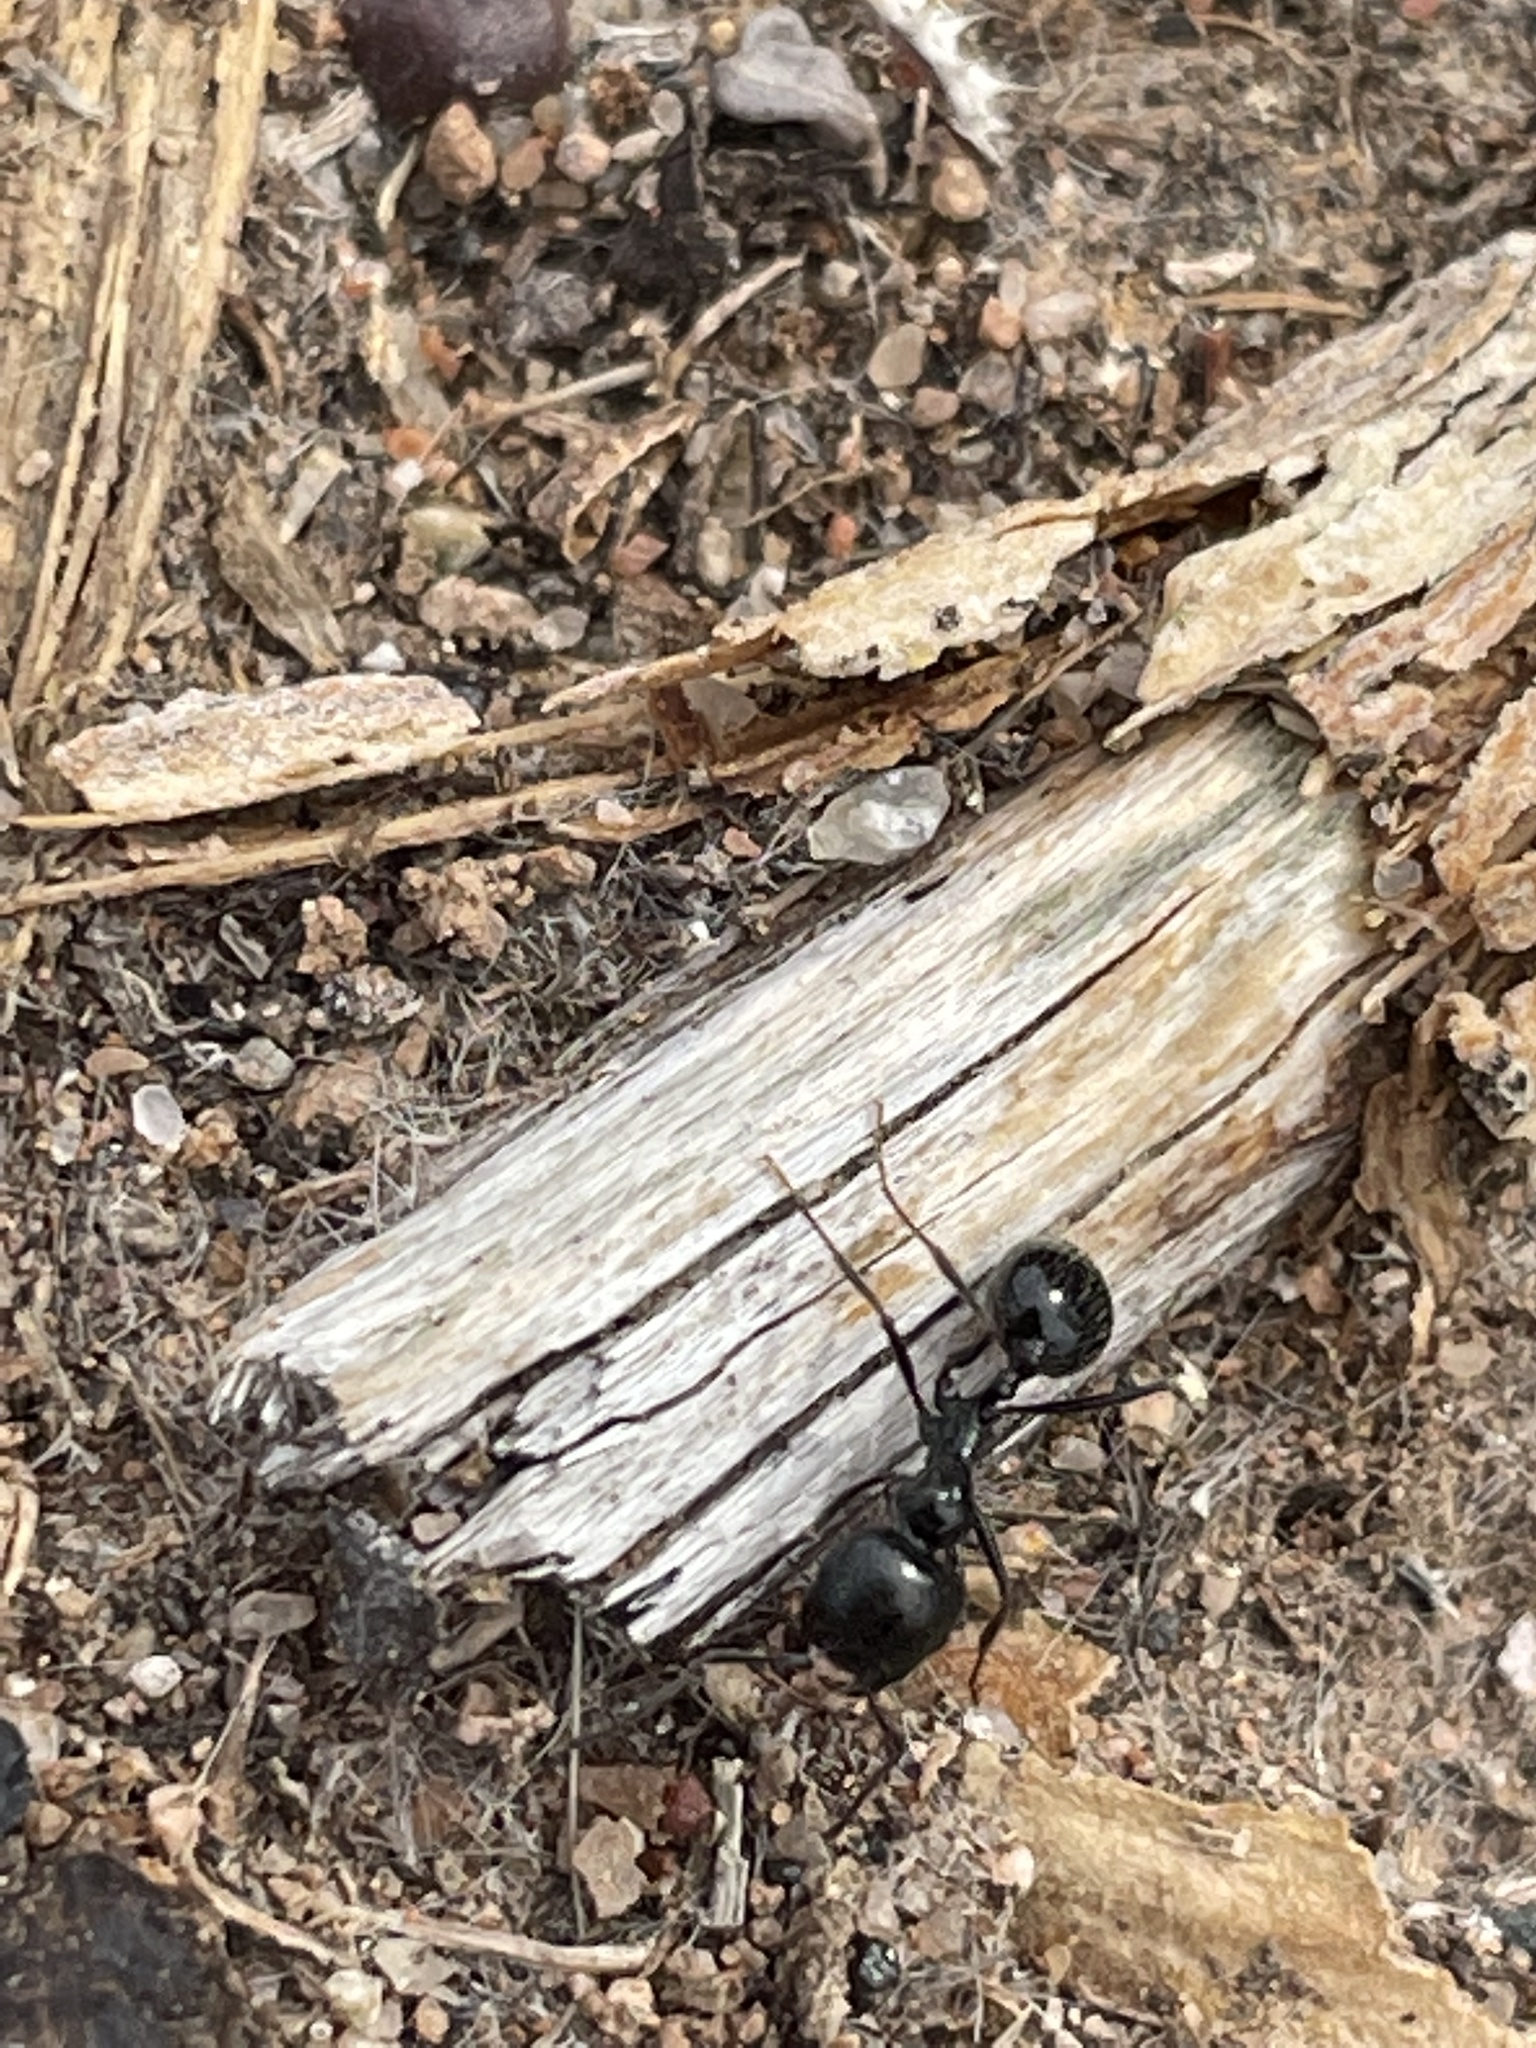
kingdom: Animalia
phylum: Arthropoda
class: Insecta
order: Hymenoptera
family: Formicidae
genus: Messor
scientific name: Messor pergandei
